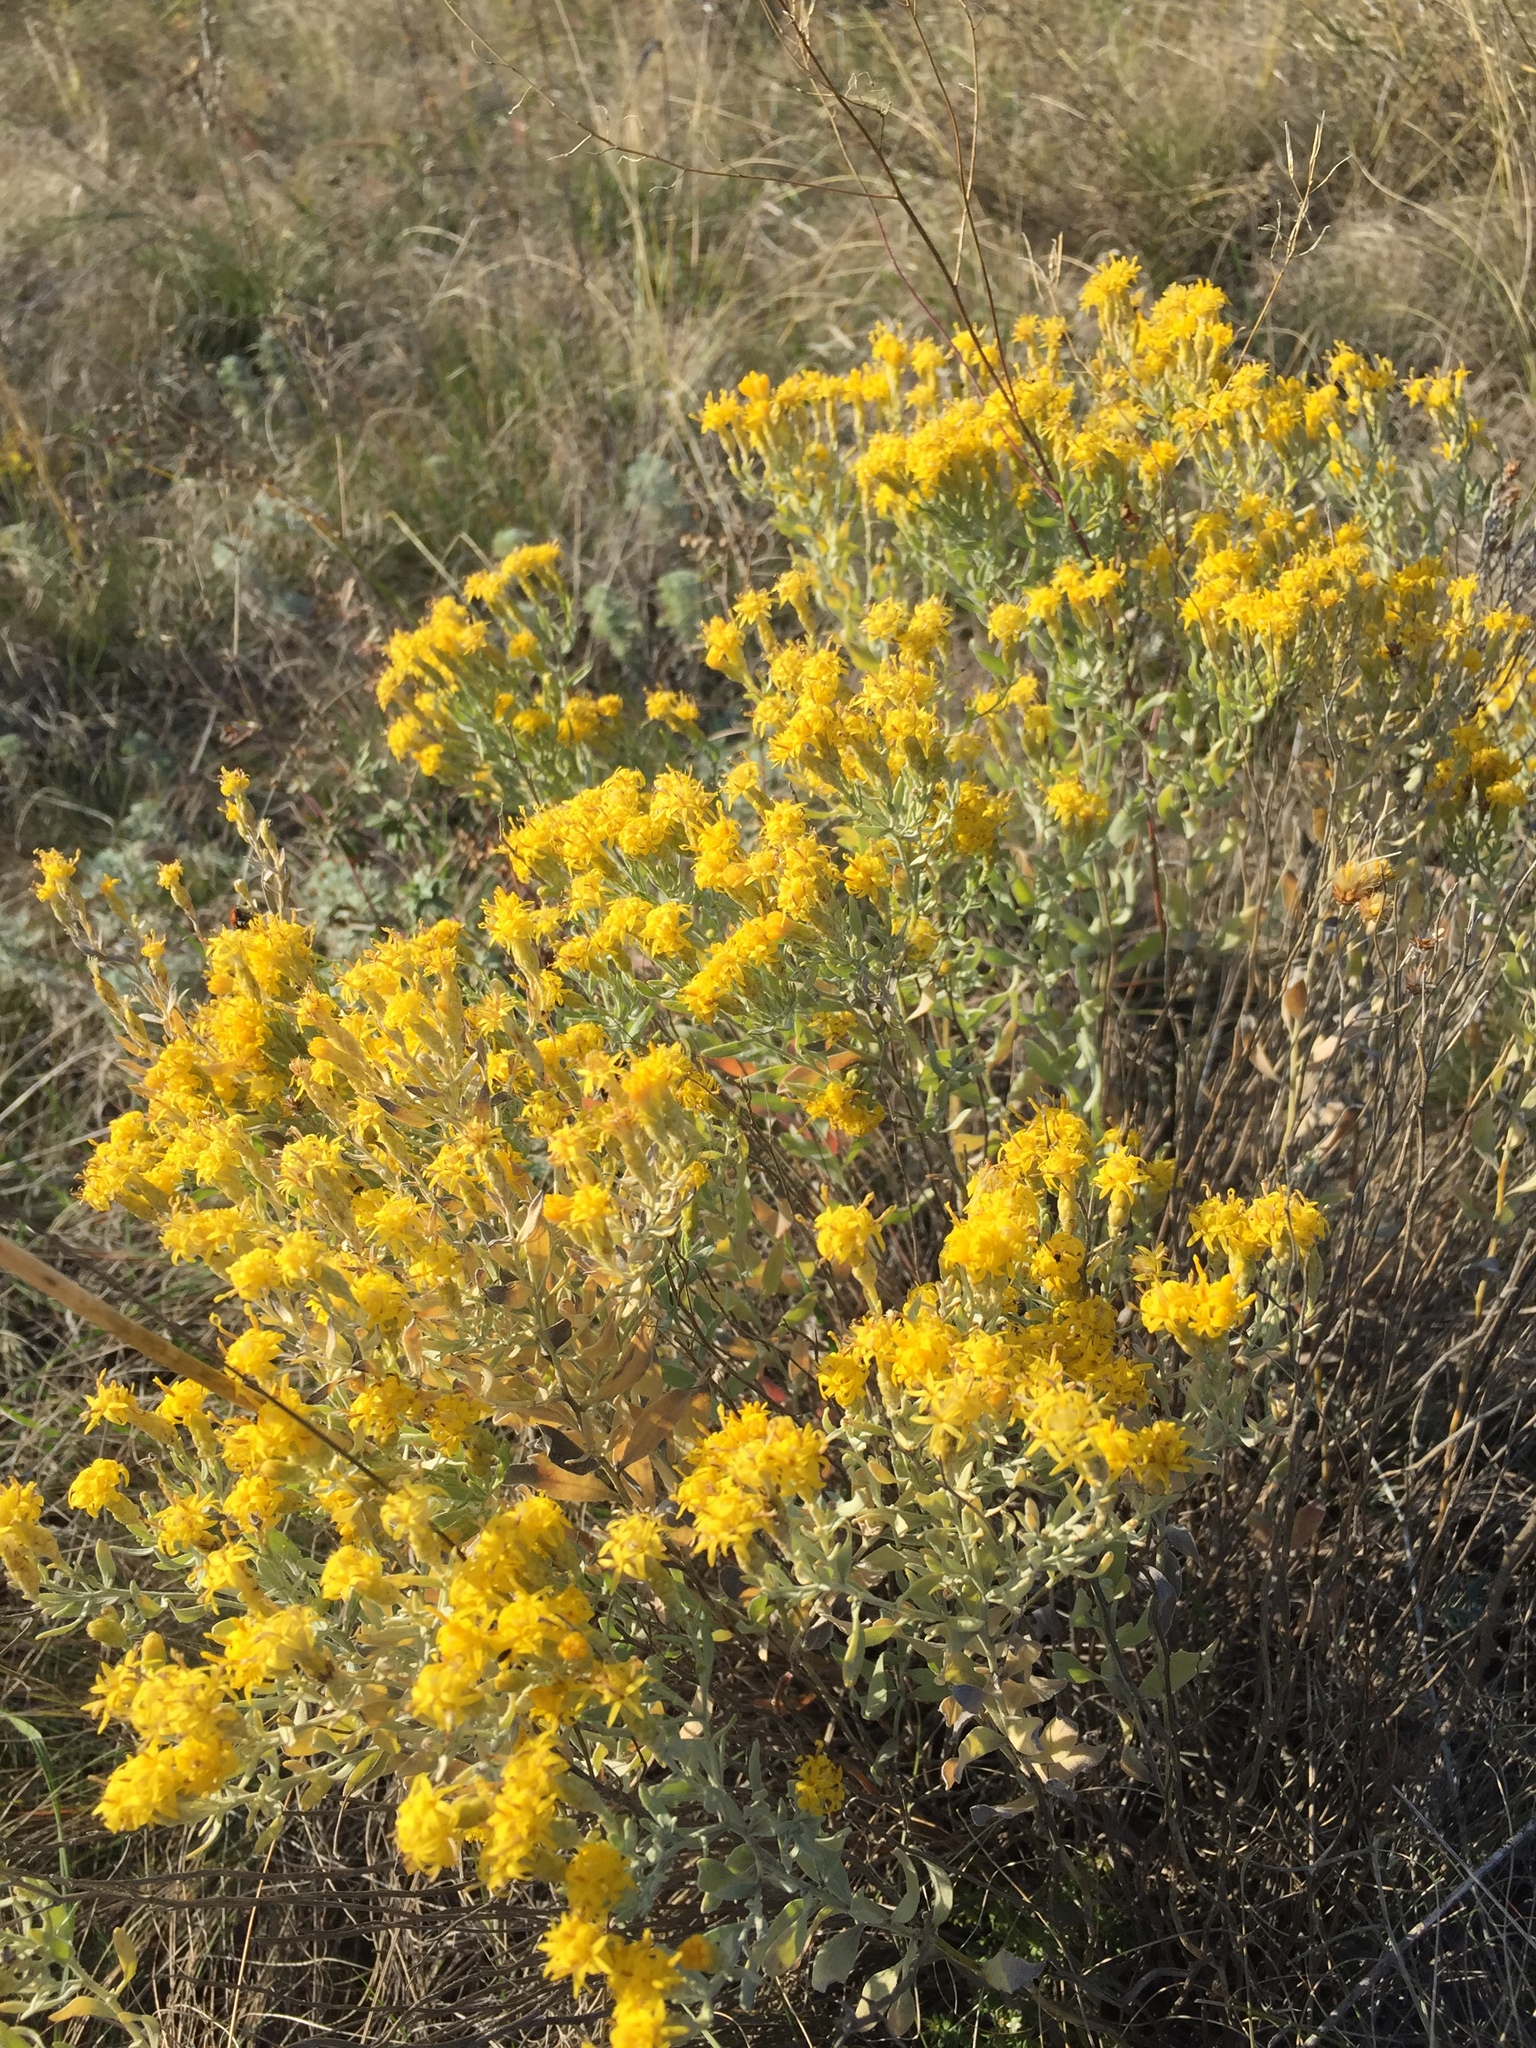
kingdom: Plantae
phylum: Tracheophyta
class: Magnoliopsida
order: Asterales
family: Asteraceae
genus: Galatella
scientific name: Galatella villosa
